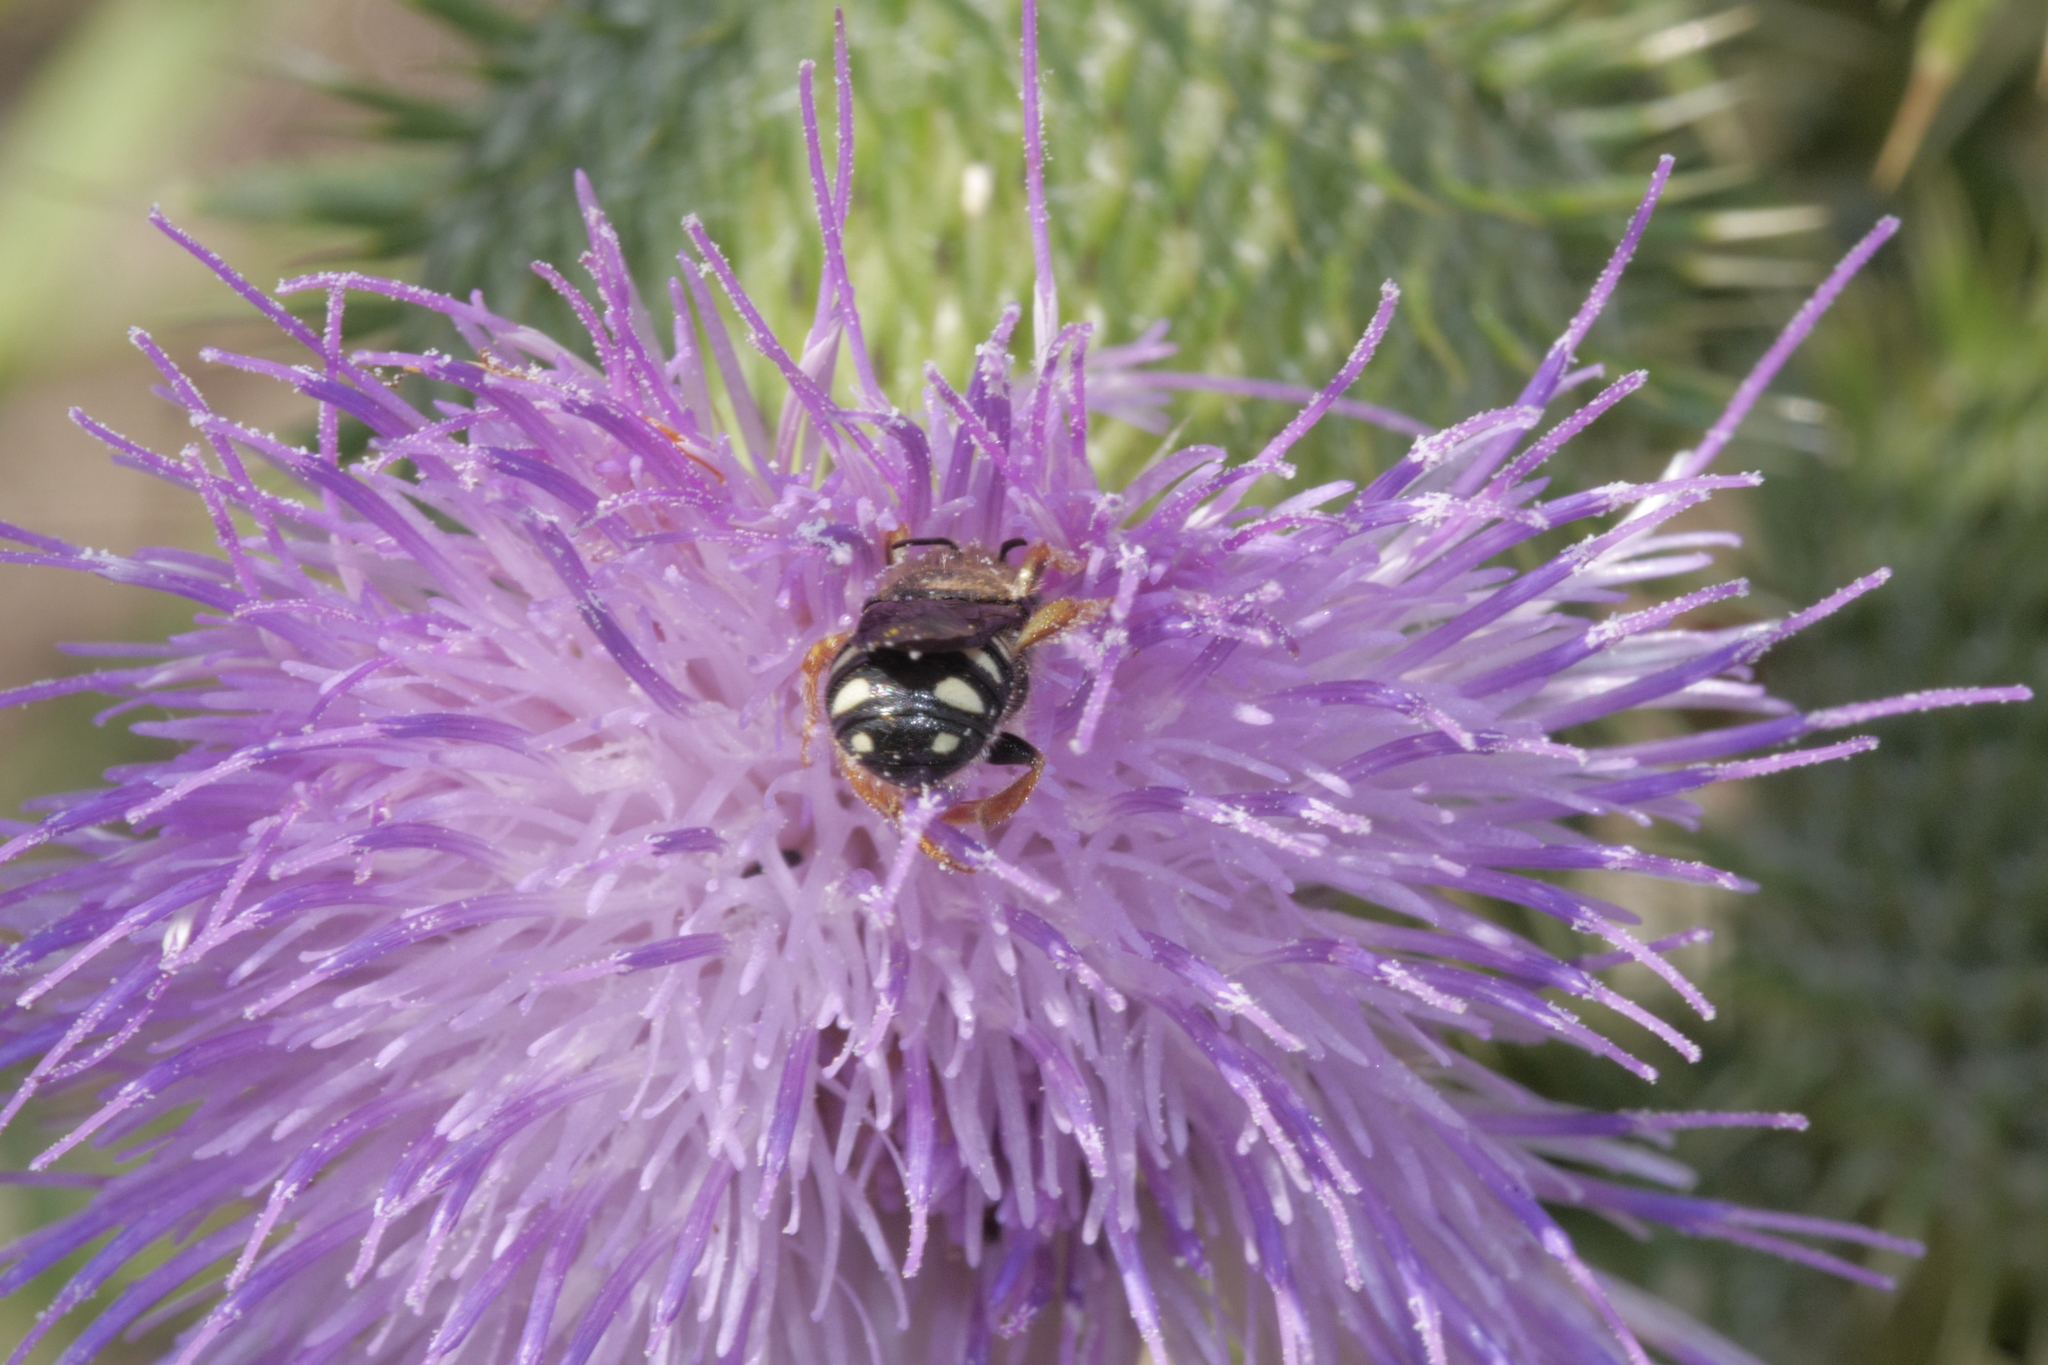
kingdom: Animalia
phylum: Arthropoda
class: Insecta
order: Hymenoptera
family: Megachilidae
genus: Pseudoanthidium
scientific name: Pseudoanthidium nanum
